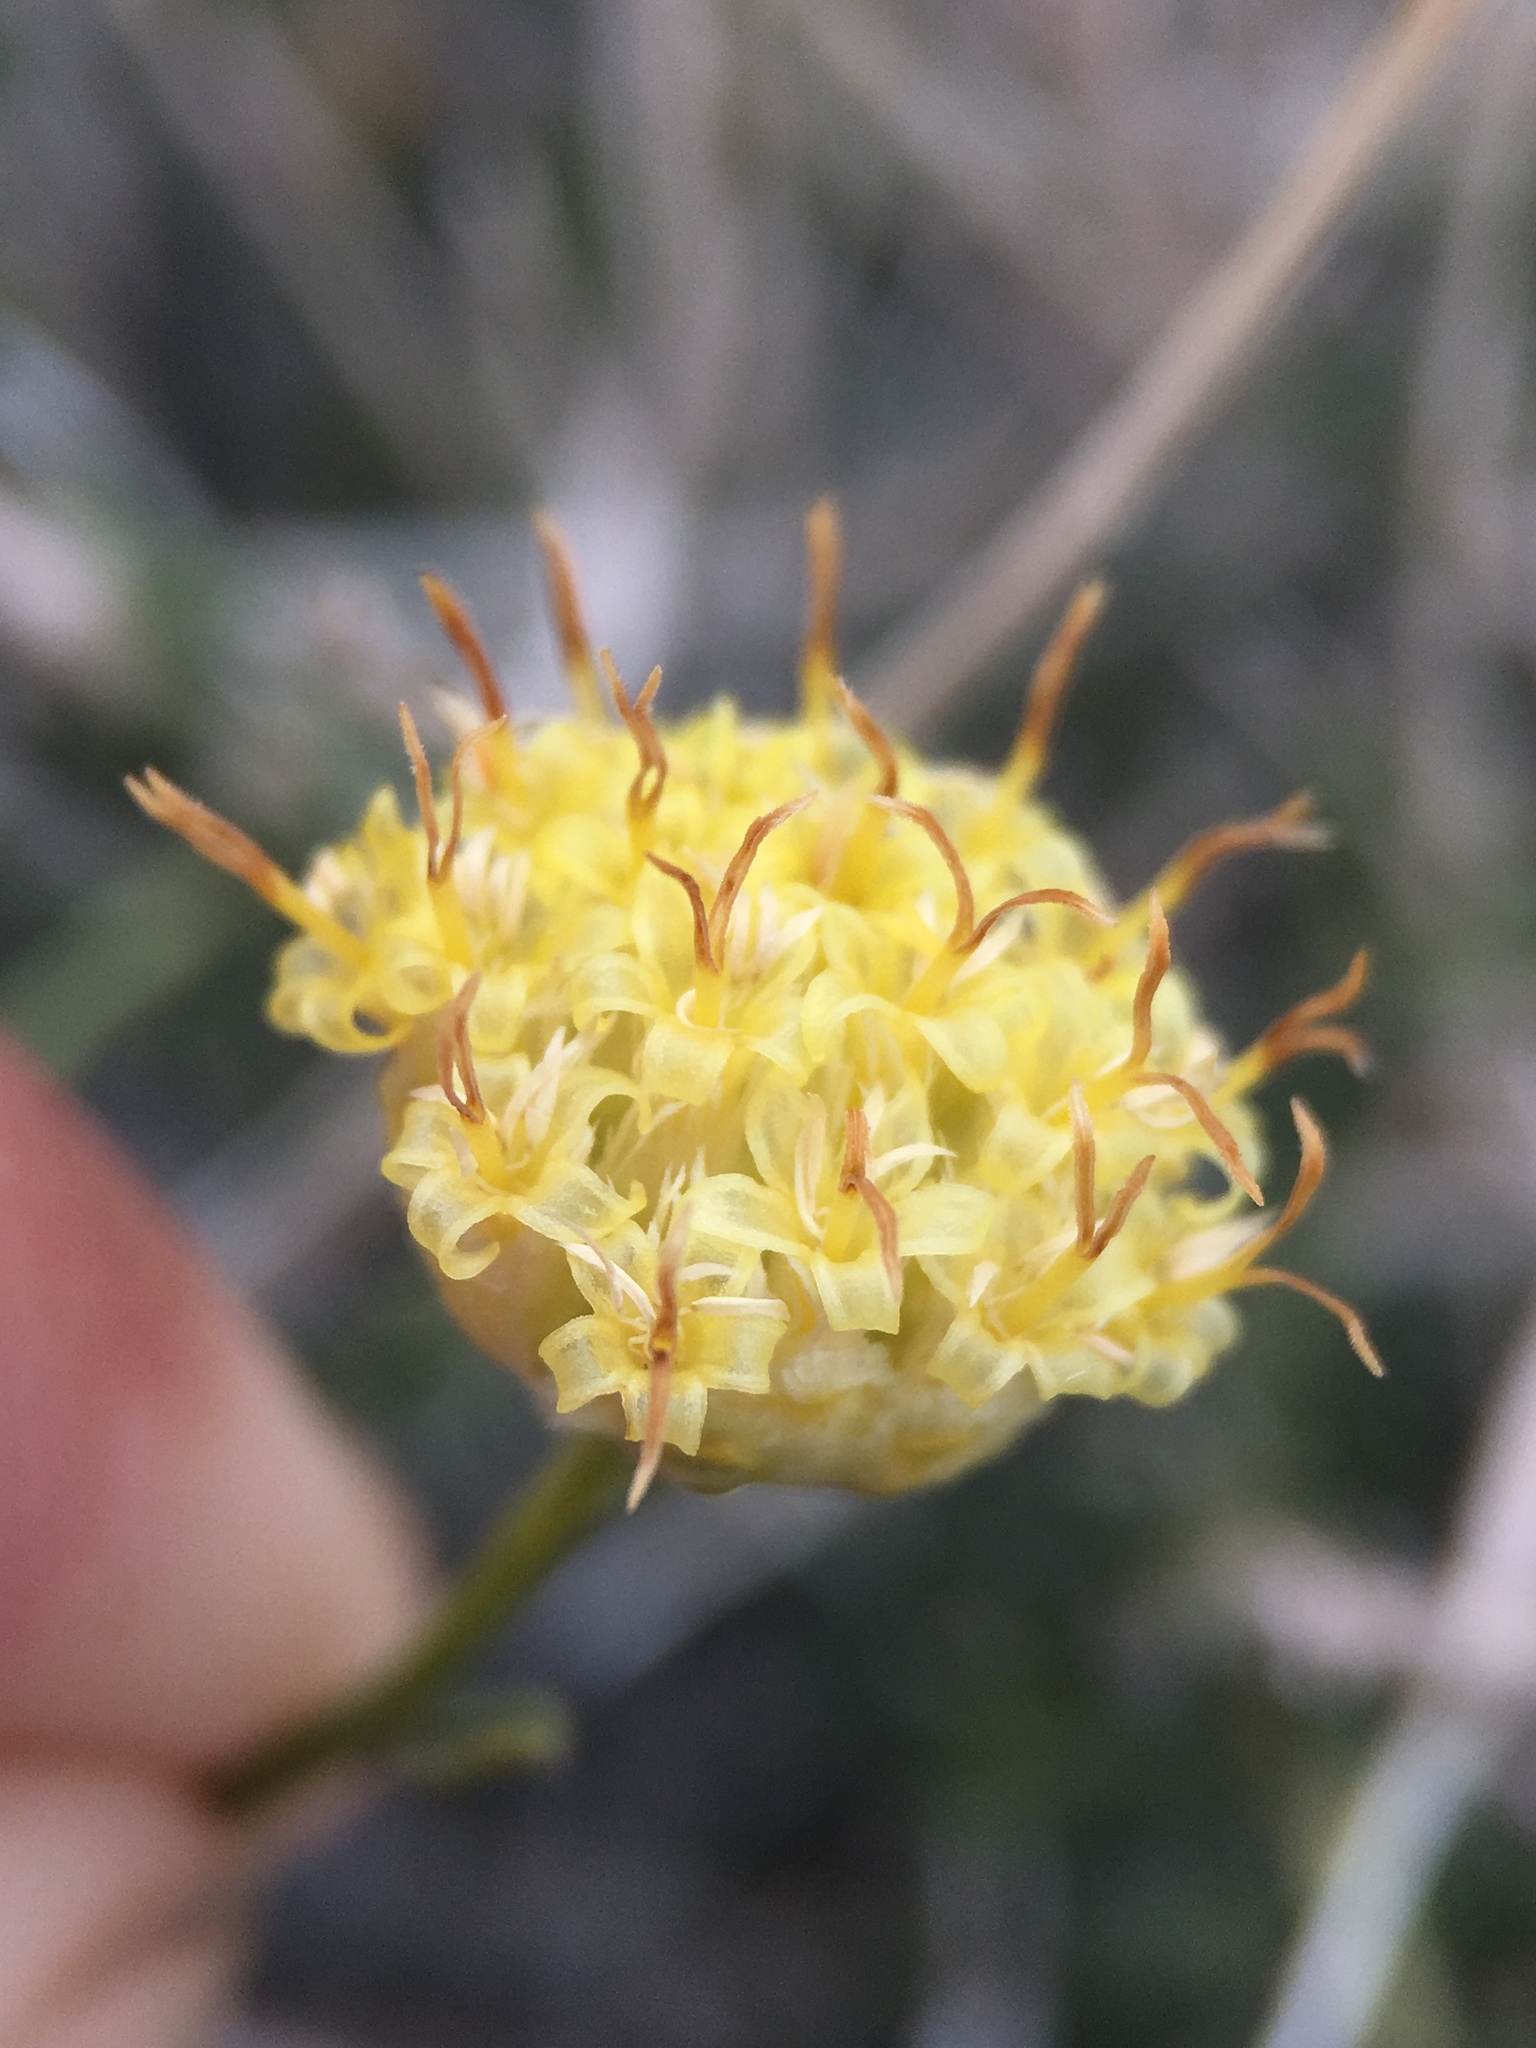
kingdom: Plantae
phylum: Tracheophyta
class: Magnoliopsida
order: Asterales
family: Asteraceae
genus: Acamptopappus
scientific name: Acamptopappus sphaerocephalus
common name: Goldenhead
